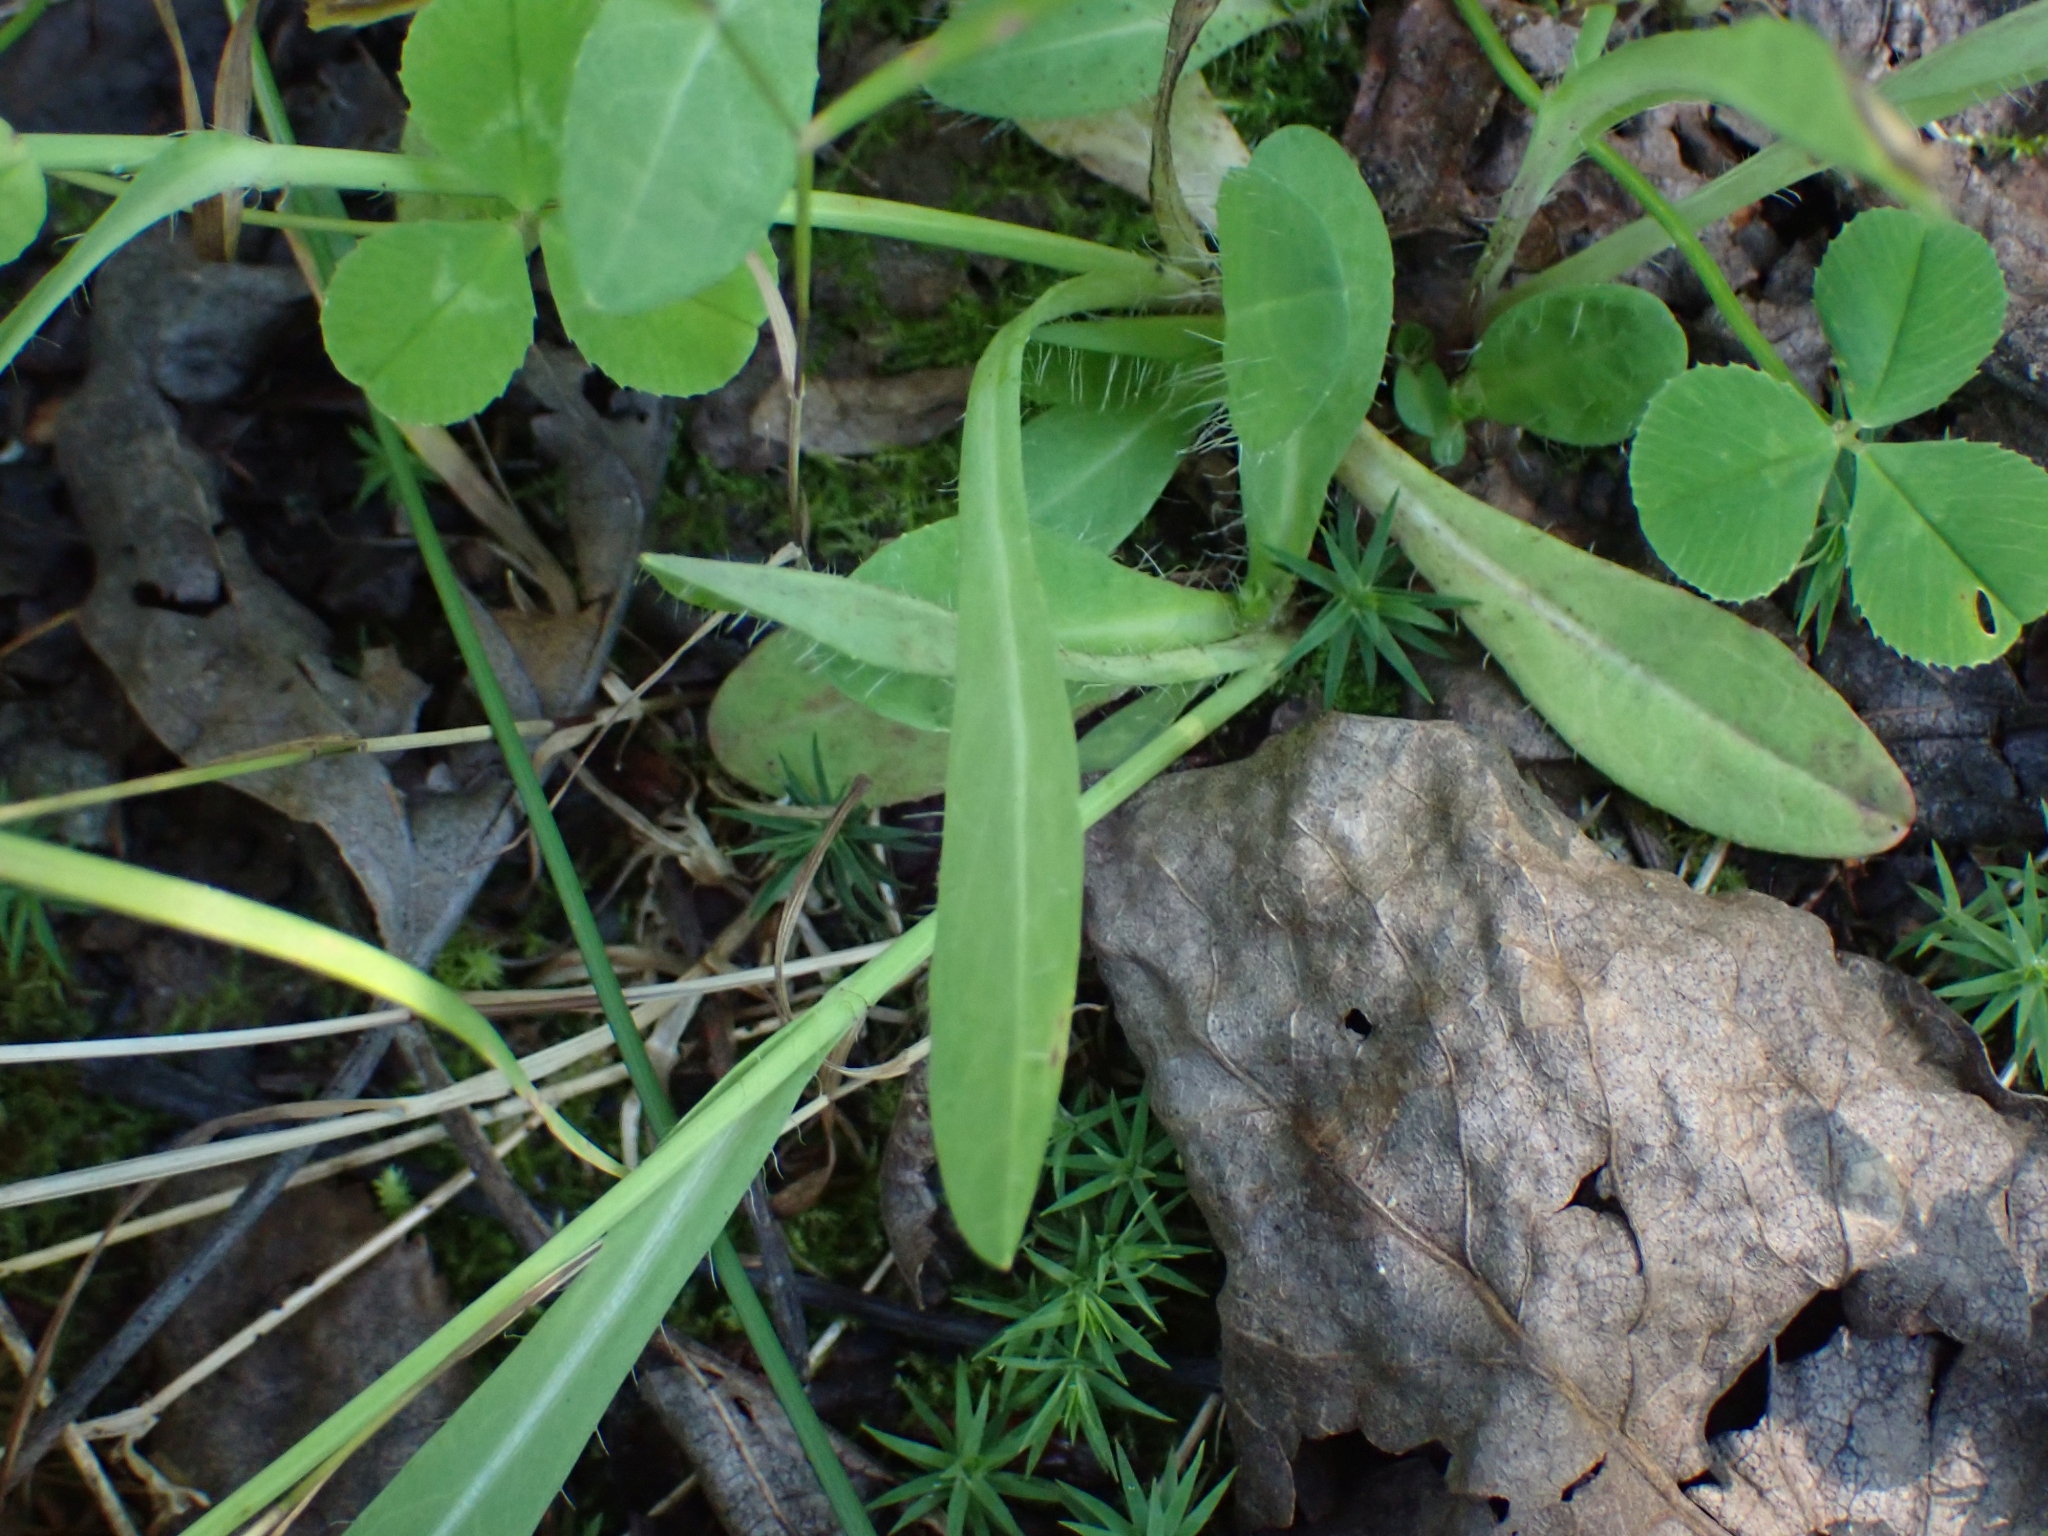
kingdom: Plantae
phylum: Tracheophyta
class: Magnoliopsida
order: Asterales
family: Asteraceae
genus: Pilosella
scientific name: Pilosella caespitosa
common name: Yellow fox-and-cubs
